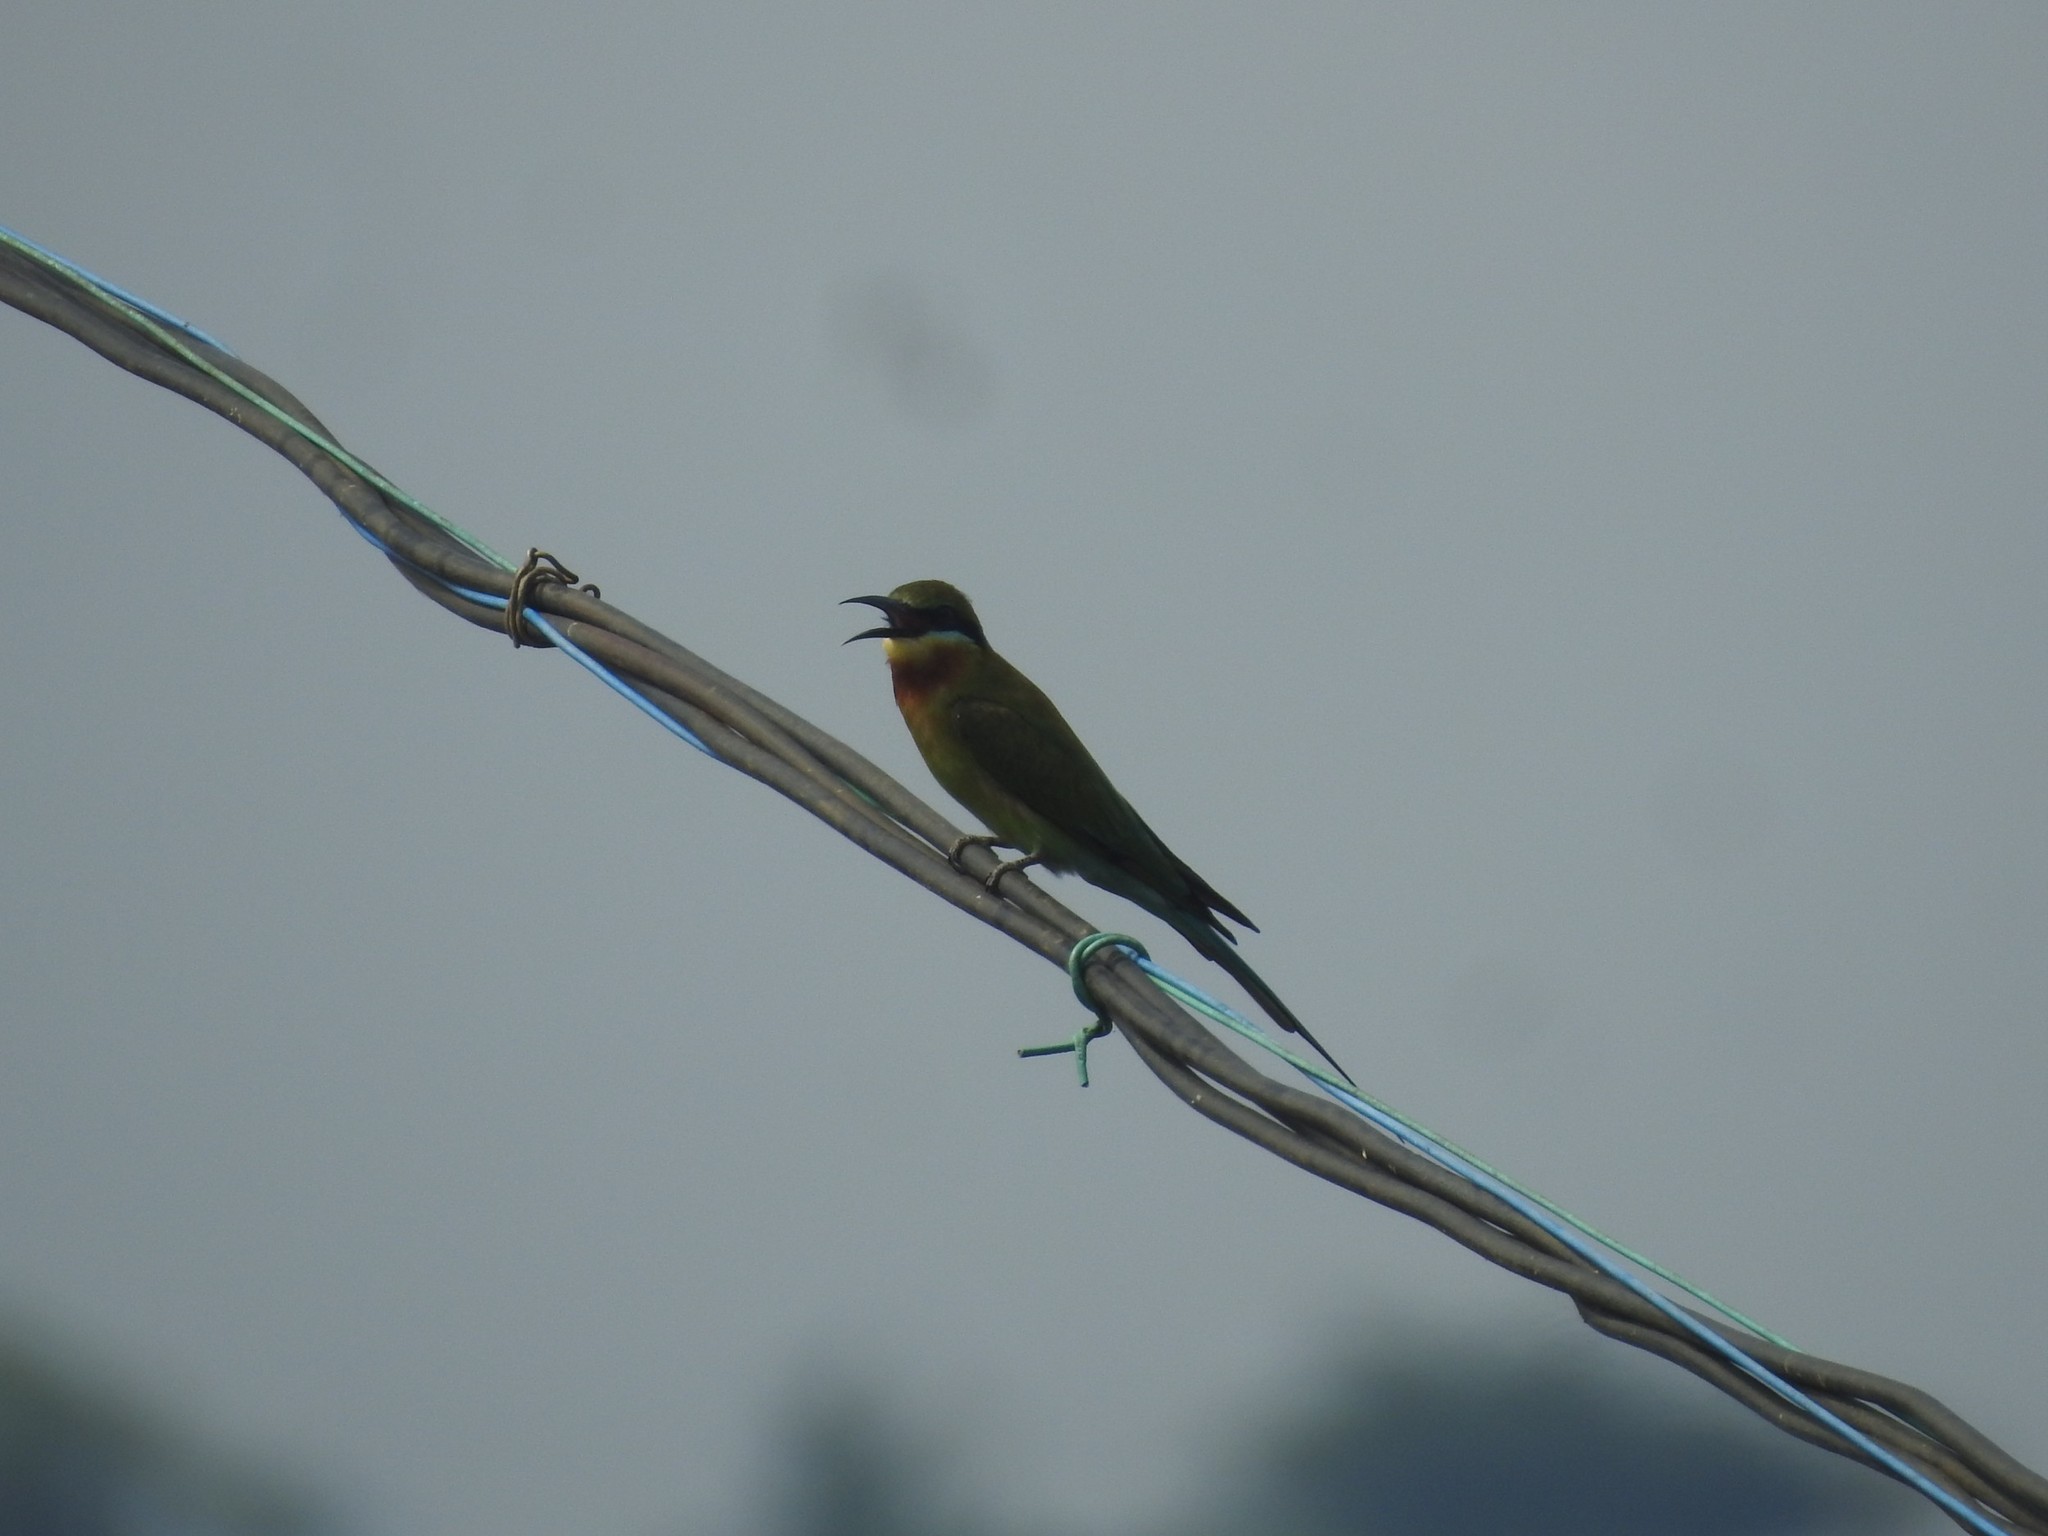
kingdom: Animalia
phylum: Chordata
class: Aves
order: Coraciiformes
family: Meropidae
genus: Merops
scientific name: Merops philippinus
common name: Blue-tailed bee-eater
